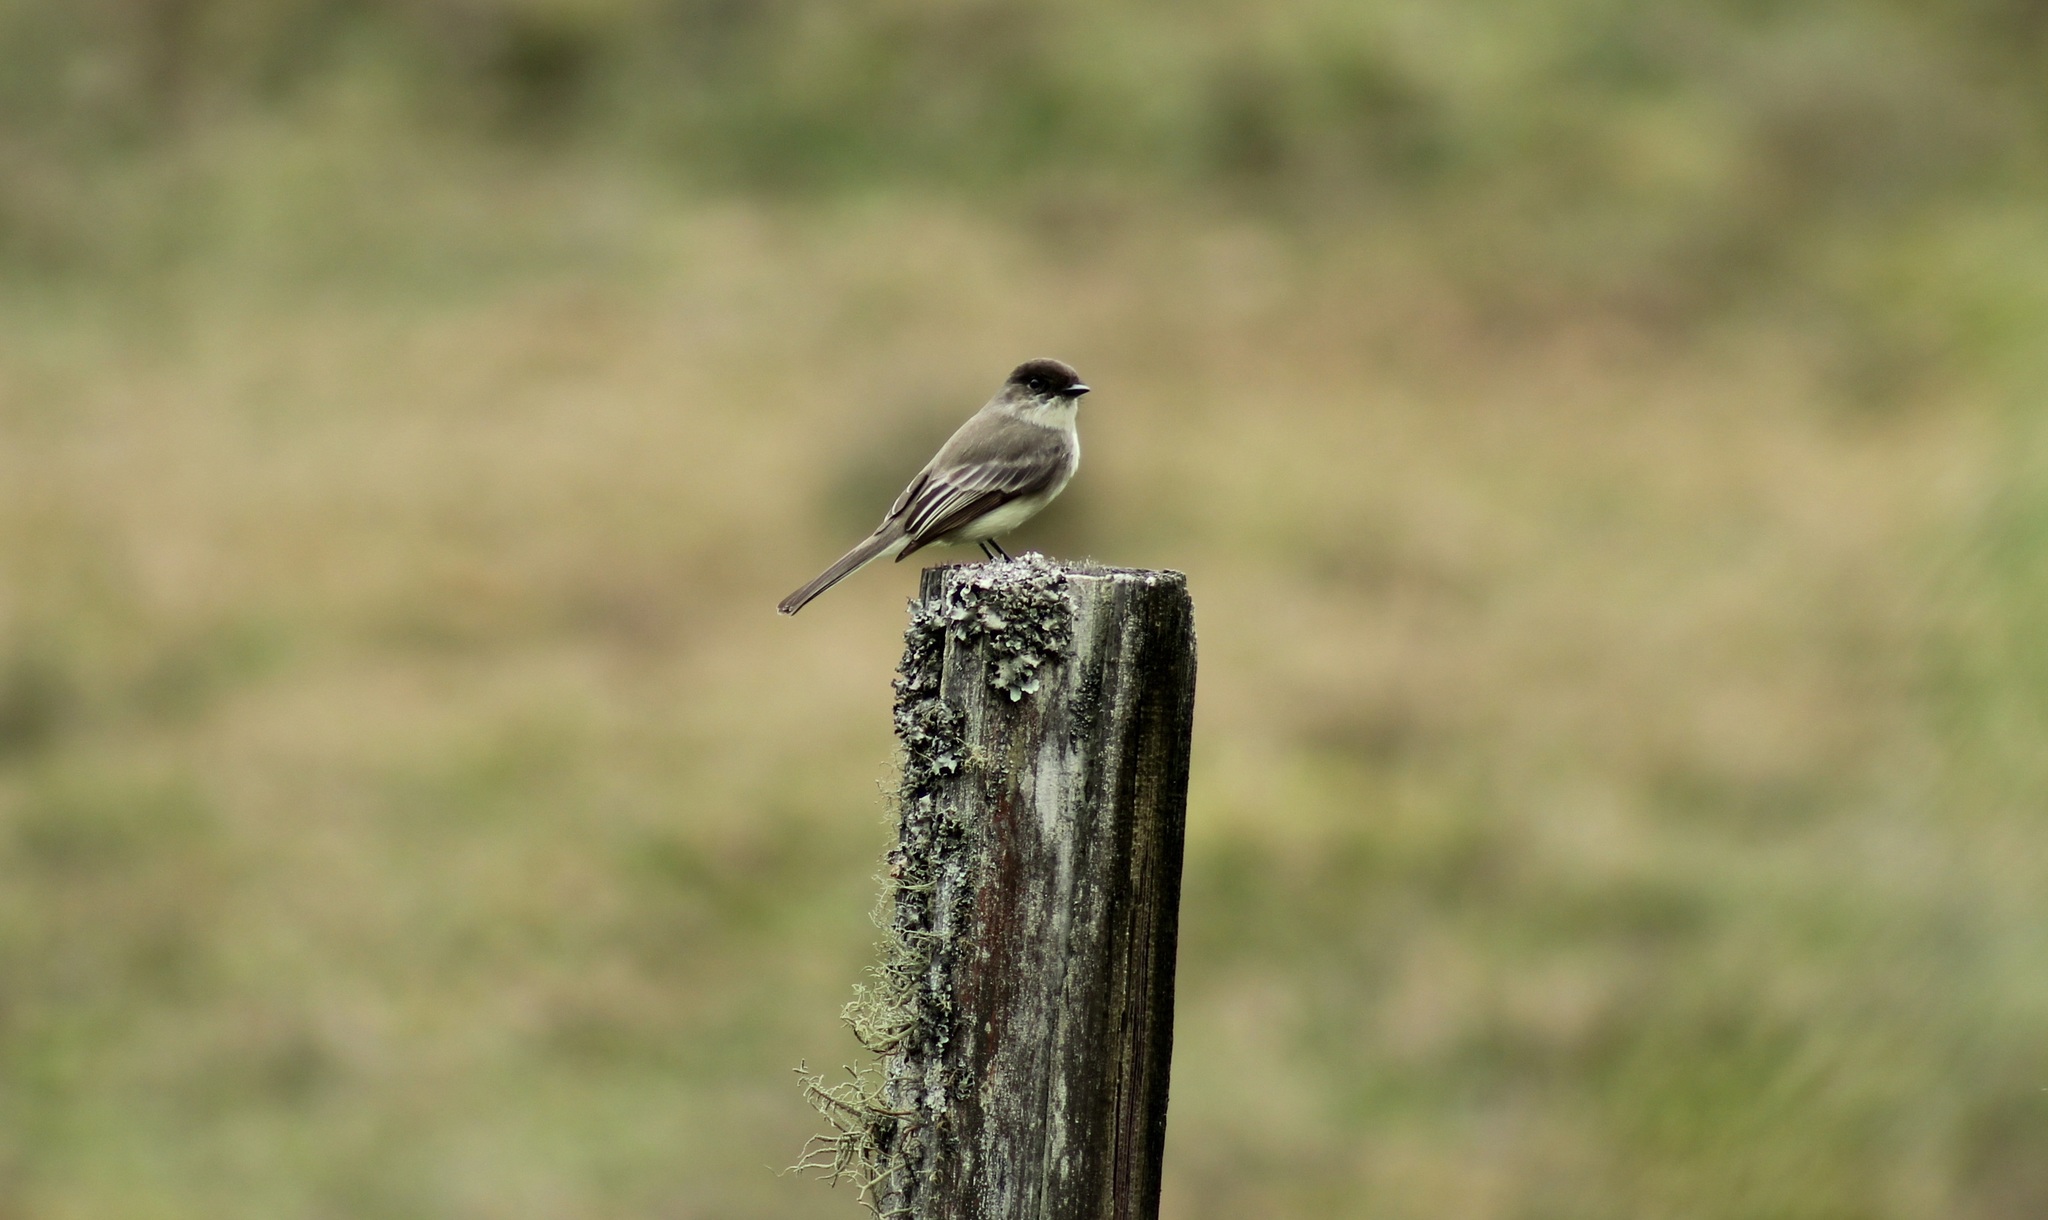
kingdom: Animalia
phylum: Chordata
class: Aves
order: Passeriformes
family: Tyrannidae
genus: Sayornis
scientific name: Sayornis phoebe
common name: Eastern phoebe
